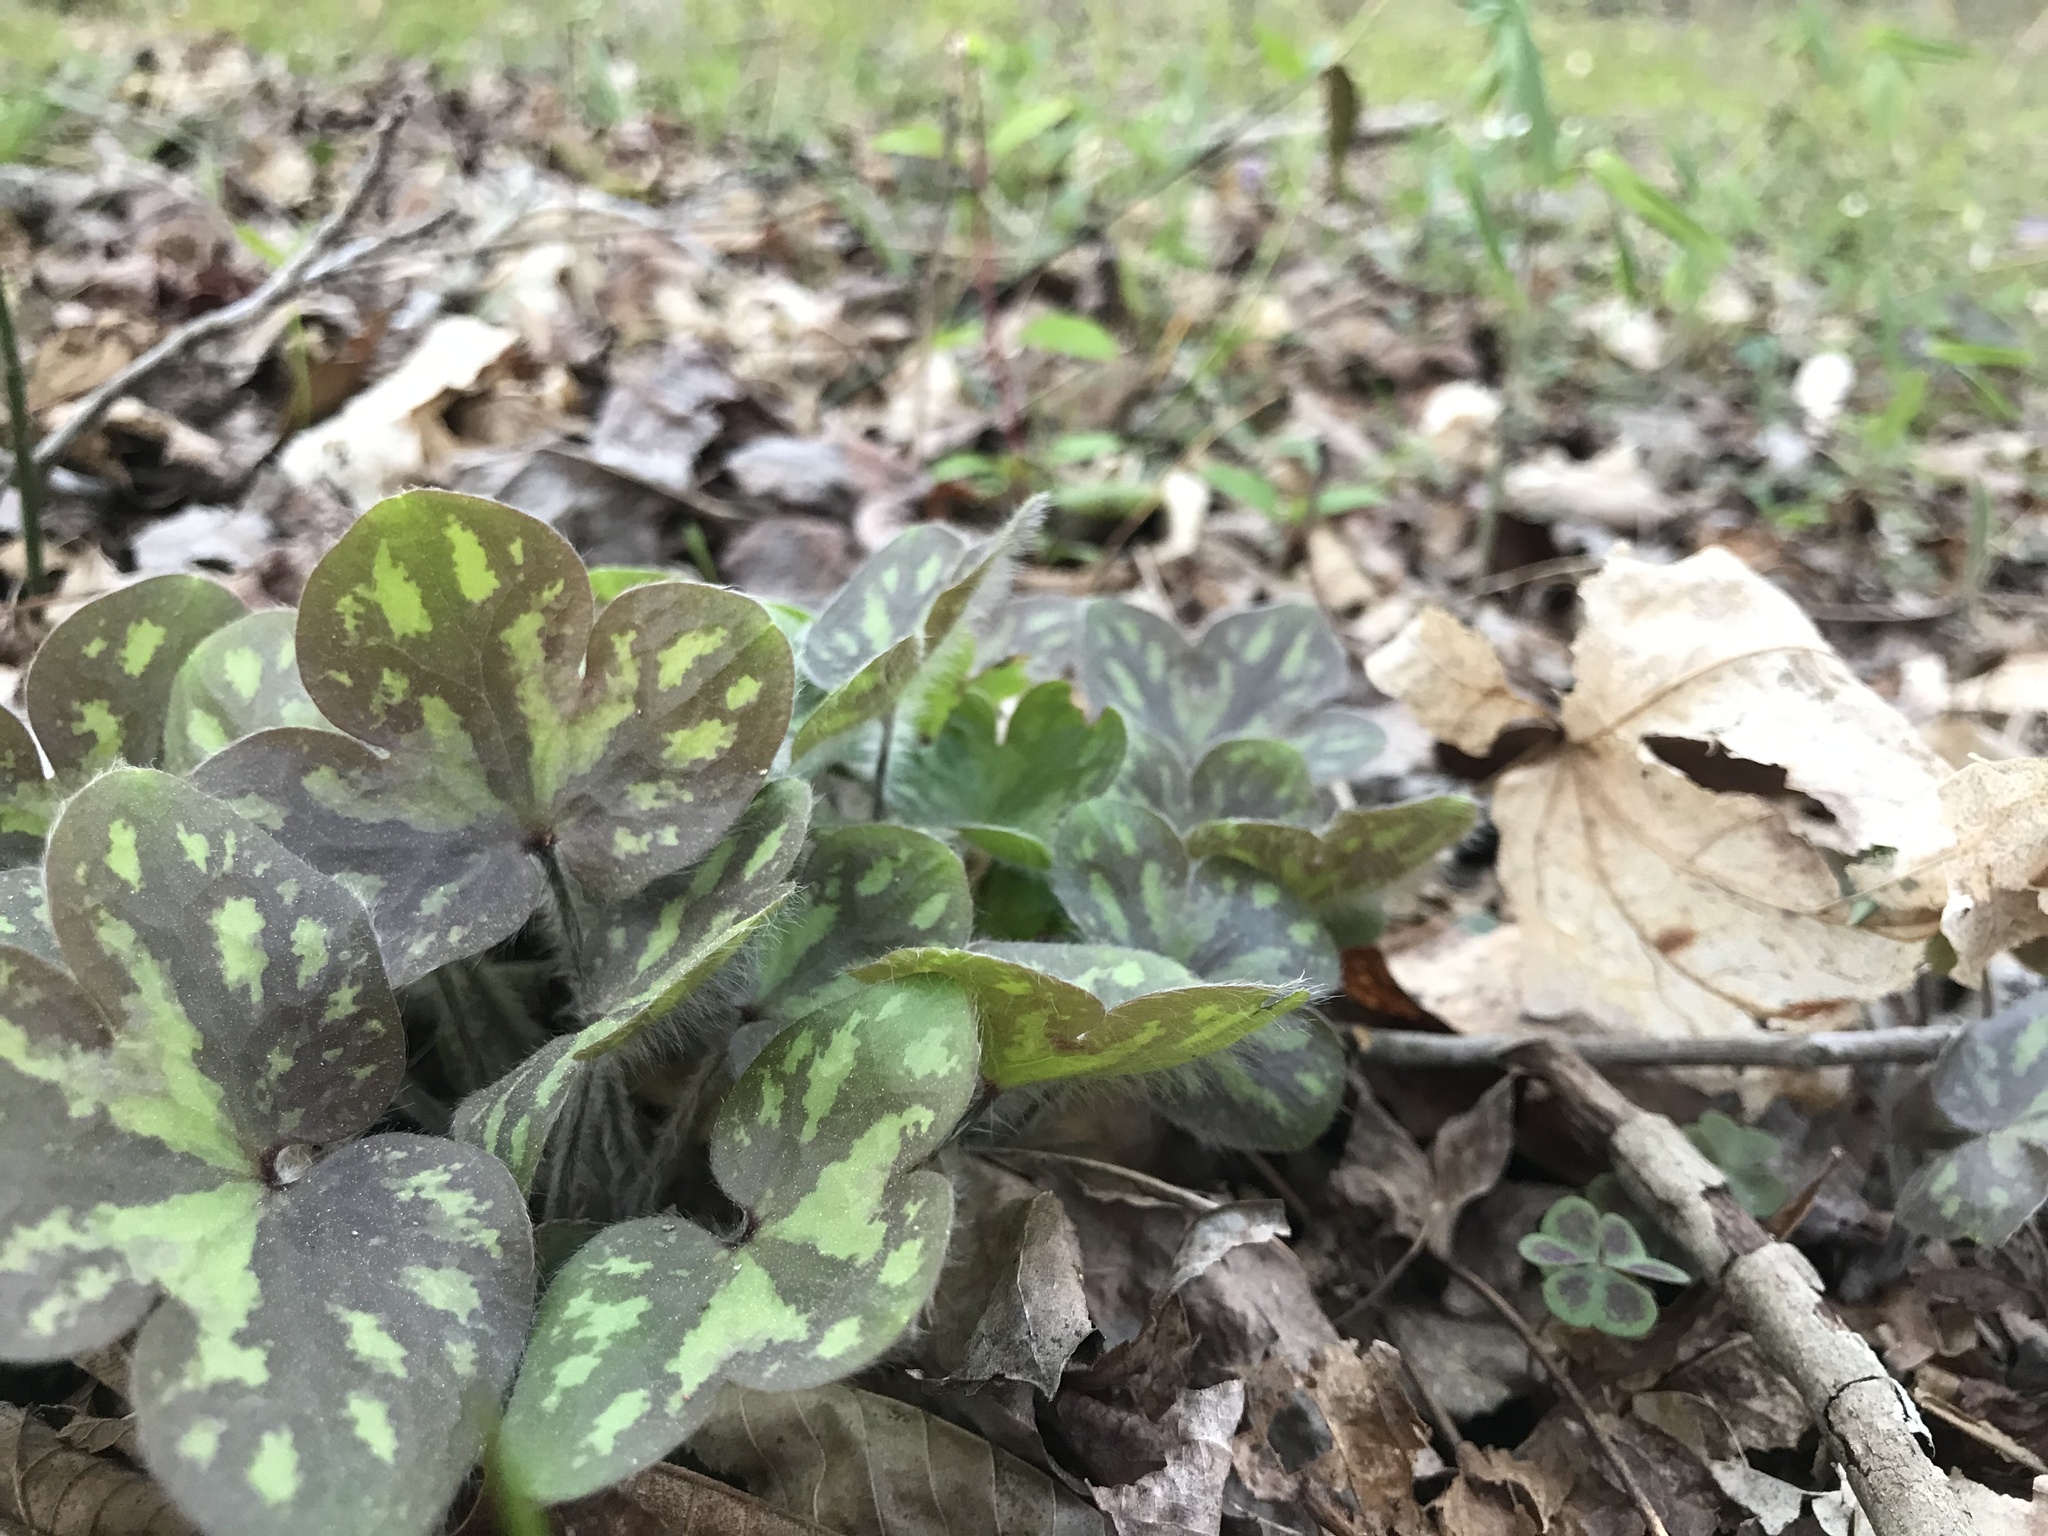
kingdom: Plantae
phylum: Tracheophyta
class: Magnoliopsida
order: Ranunculales
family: Ranunculaceae
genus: Hepatica
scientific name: Hepatica americana
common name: American hepatica
